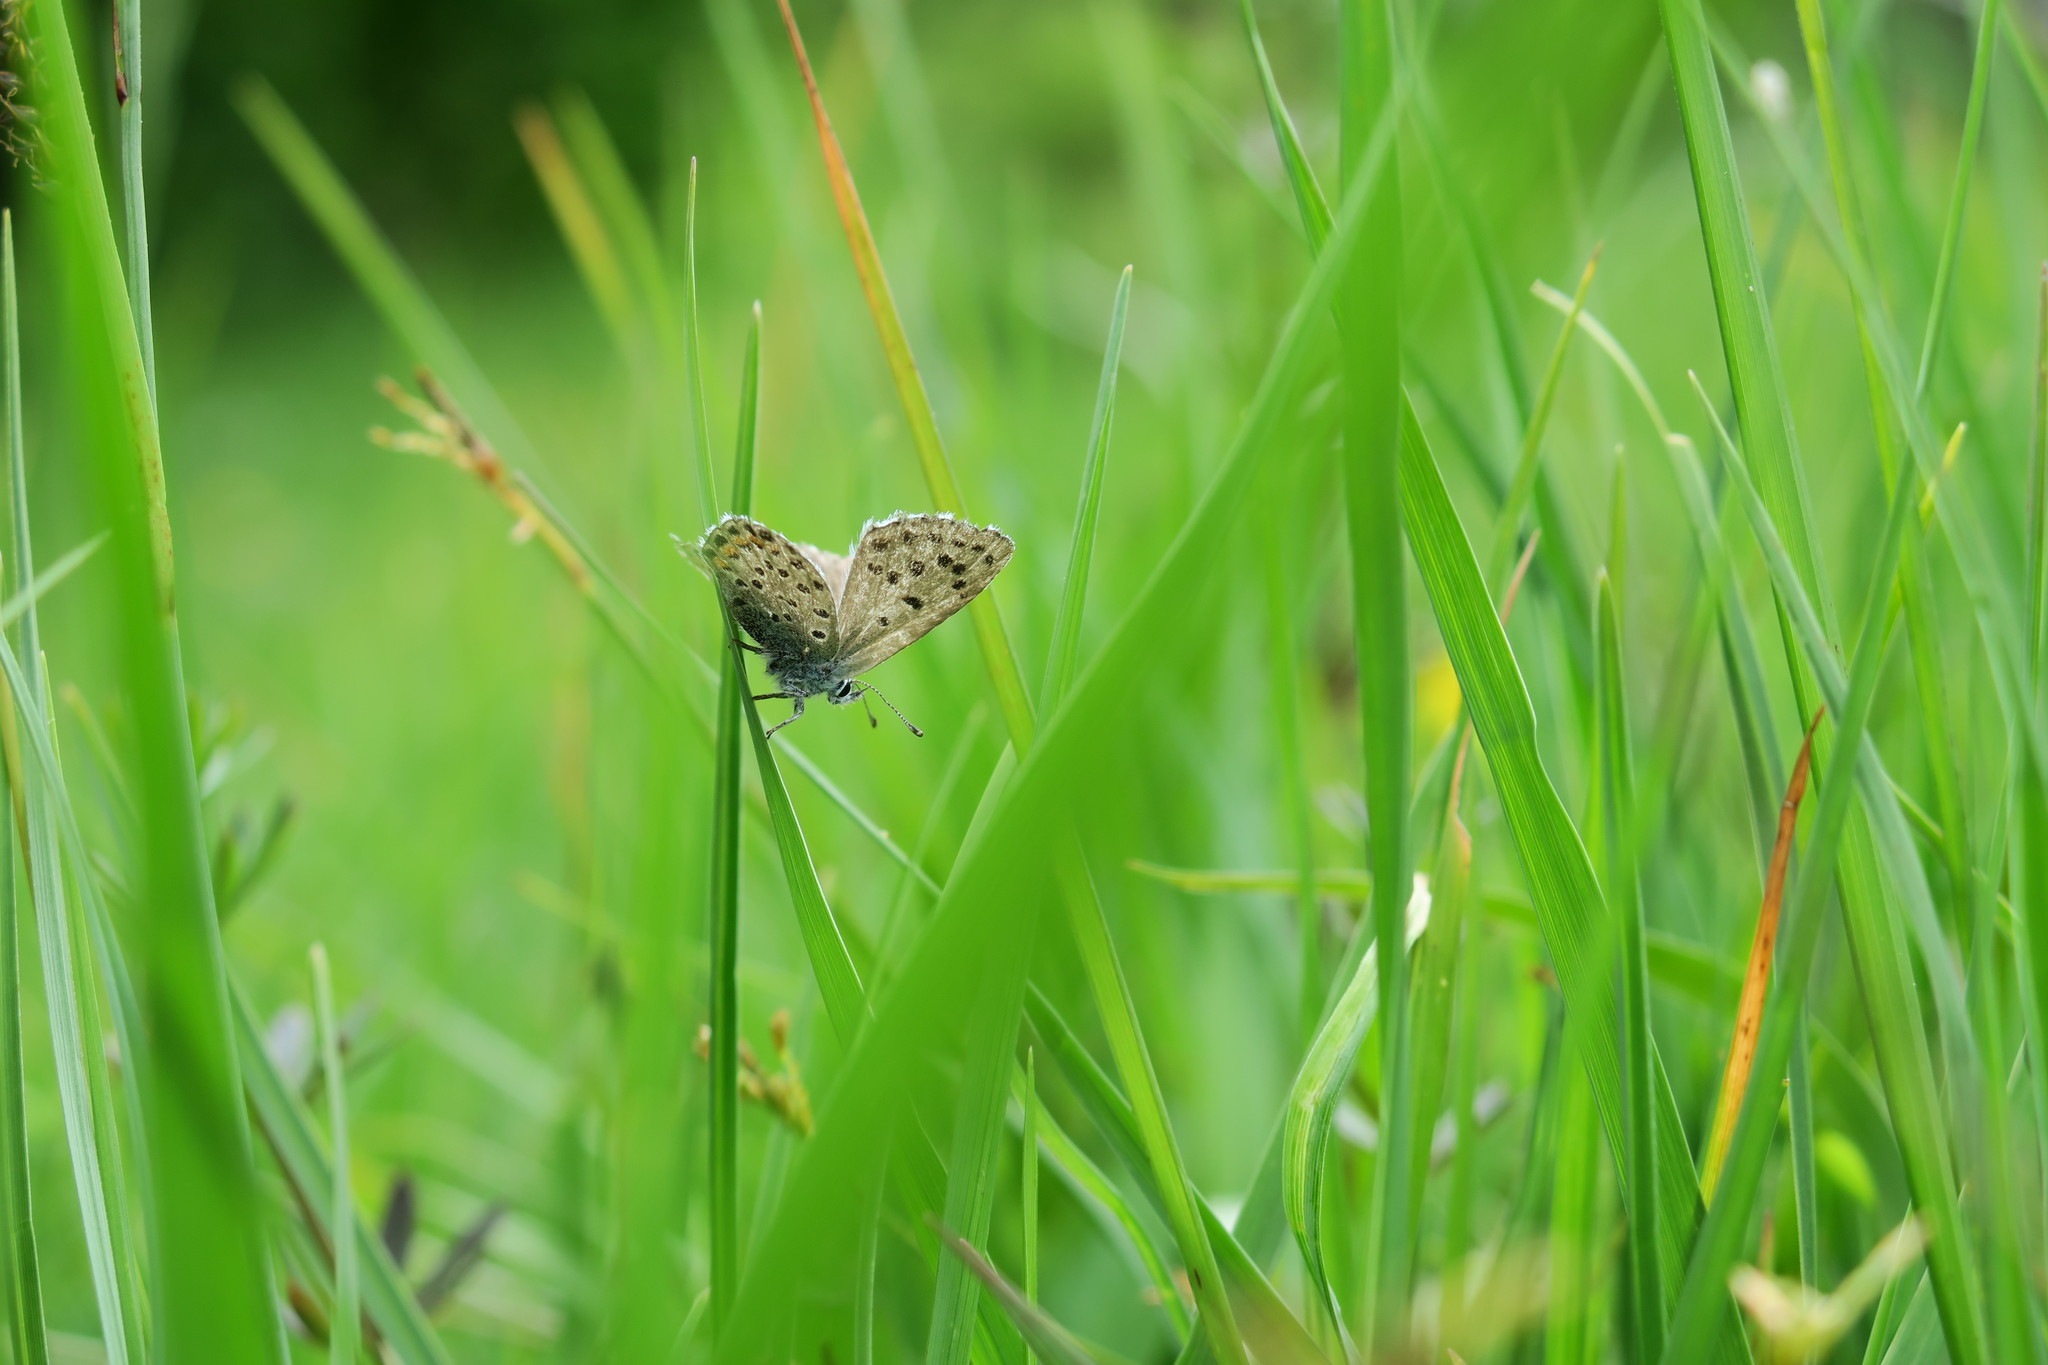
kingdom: Animalia
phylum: Arthropoda
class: Insecta
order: Lepidoptera
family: Lycaenidae
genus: Pseudophilotes
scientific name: Pseudophilotes baton
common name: Baton blue
